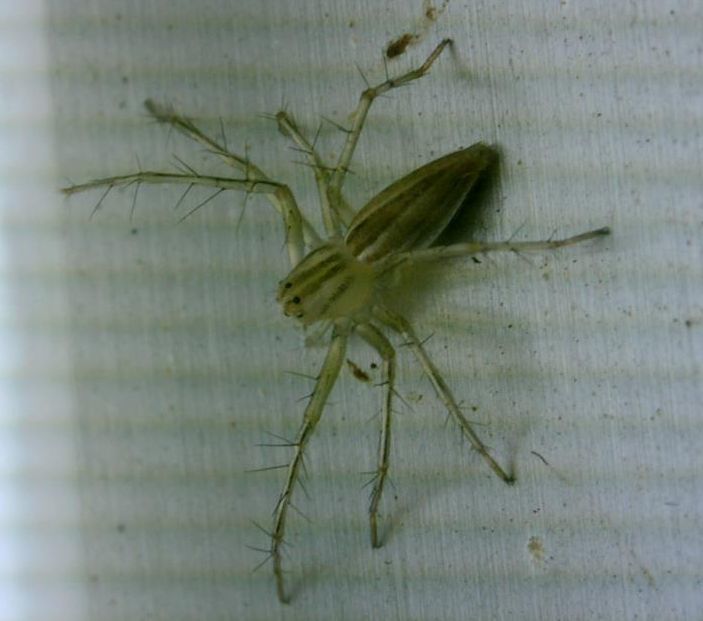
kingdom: Animalia
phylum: Arthropoda
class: Arachnida
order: Araneae
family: Oxyopidae
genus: Oxyopes
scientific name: Oxyopes macilentus
